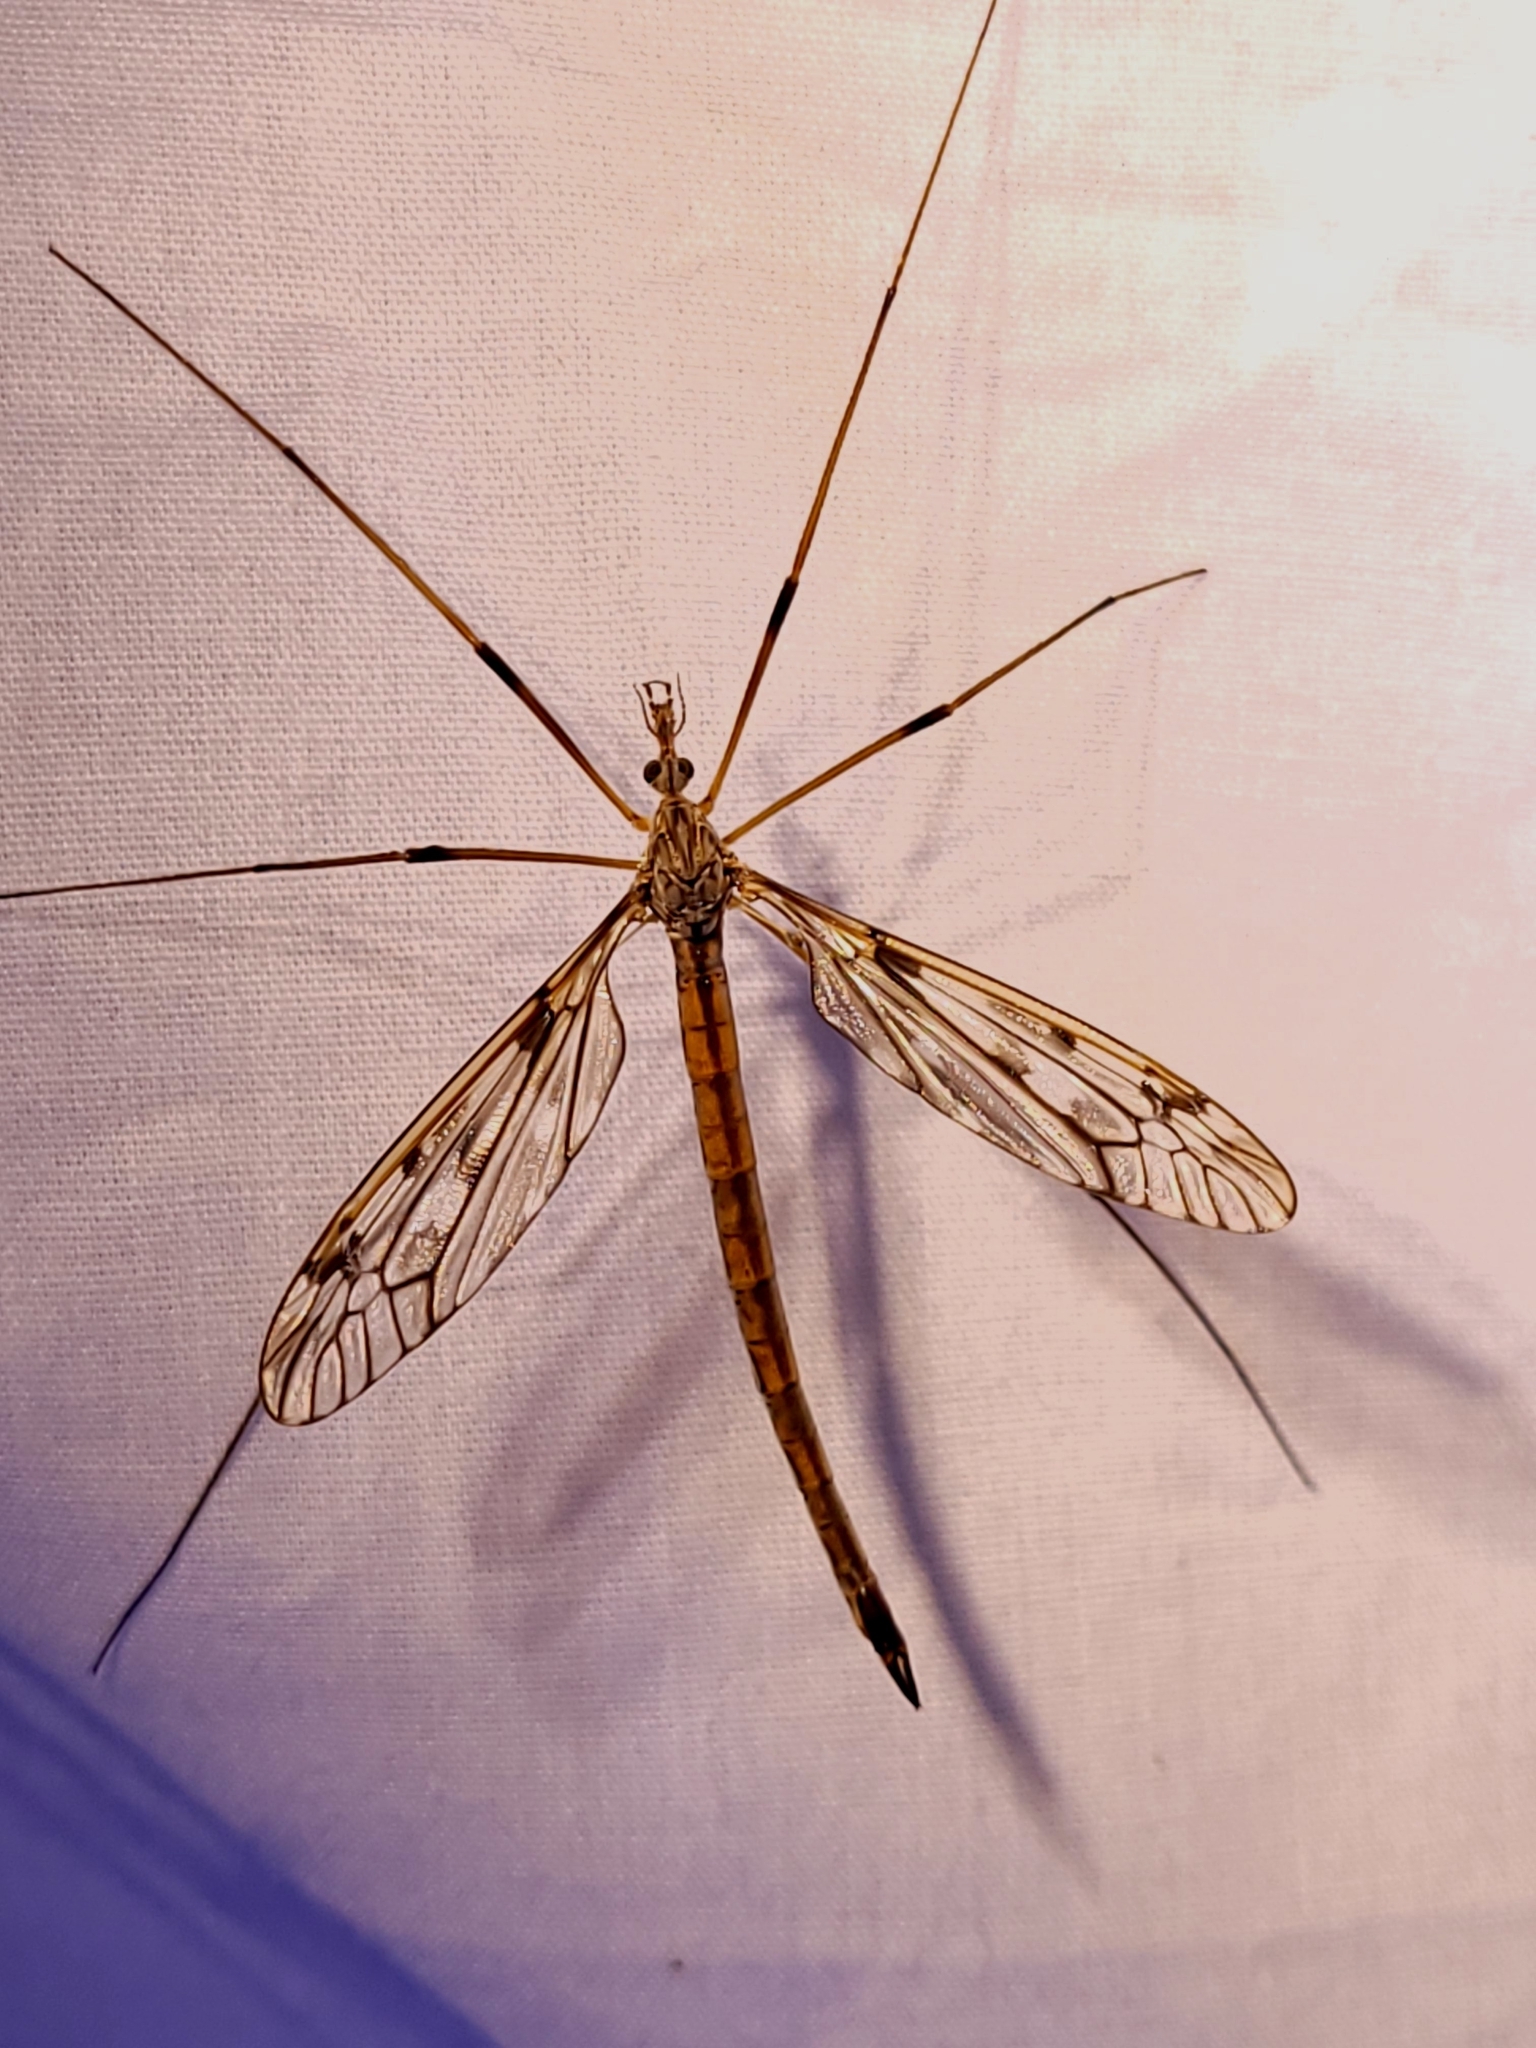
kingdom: Animalia
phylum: Arthropoda
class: Insecta
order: Diptera
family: Tipulidae
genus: Tipula
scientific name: Tipula longiventris
